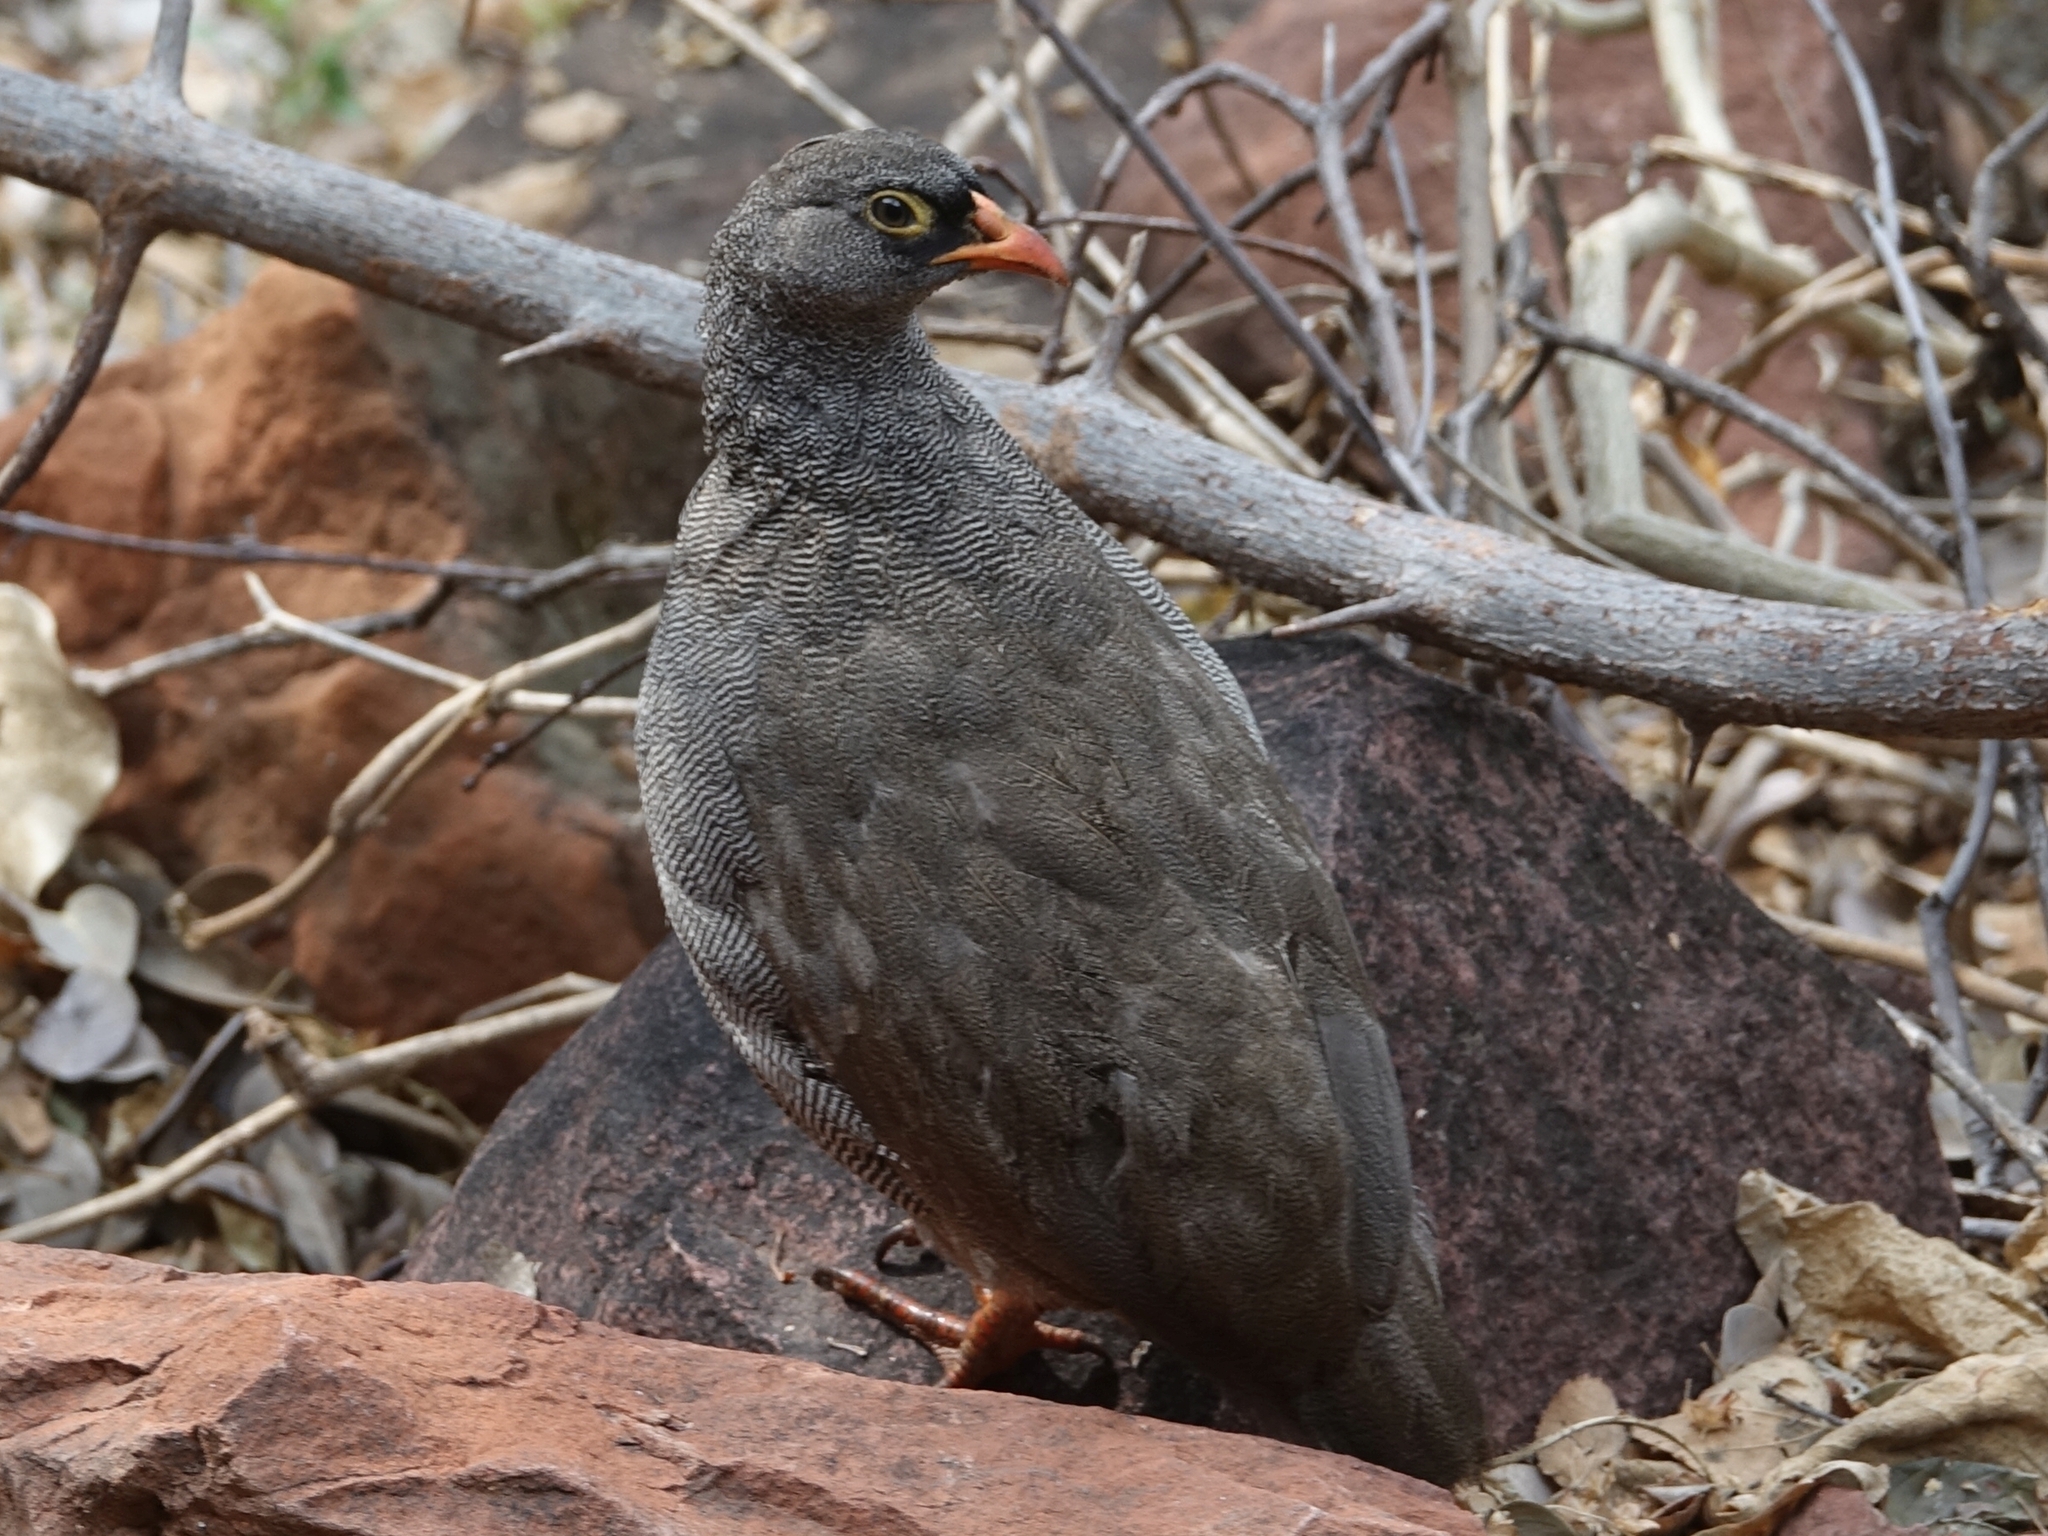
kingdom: Animalia
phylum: Chordata
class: Aves
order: Galliformes
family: Phasianidae
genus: Pternistis
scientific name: Pternistis adspersus
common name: Red-billed spurfowl
